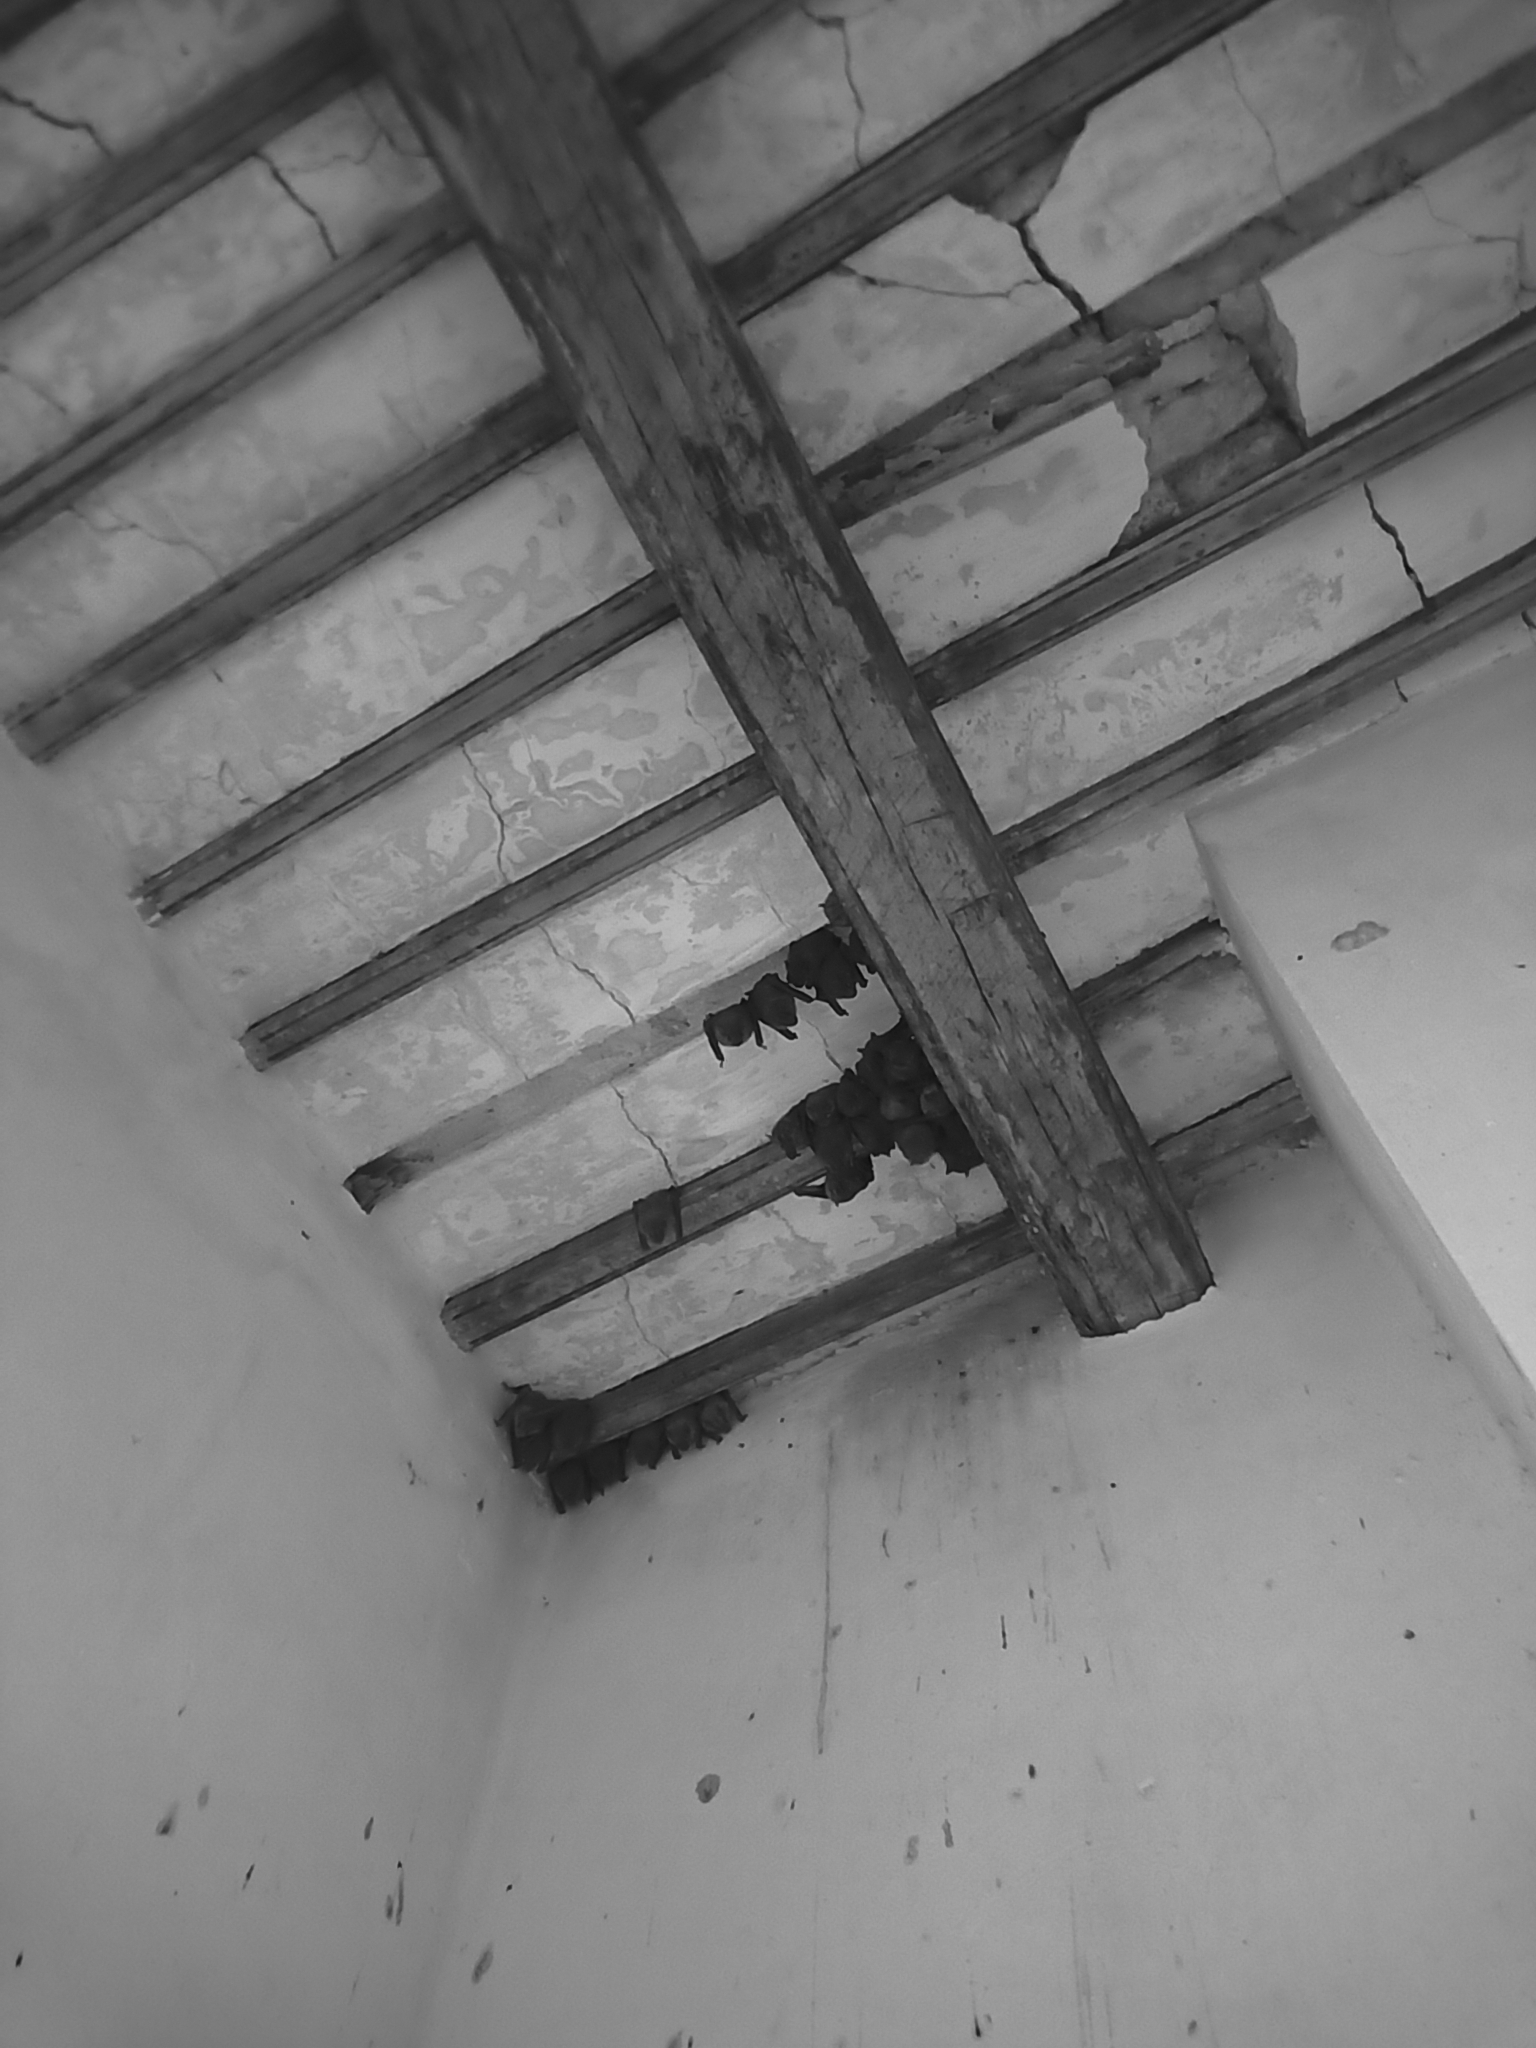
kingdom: Animalia
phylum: Chordata
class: Mammalia
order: Chiroptera
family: Phyllostomidae
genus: Artibeus
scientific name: Artibeus jamaicensis
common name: Jamaican fruit-eating bat
